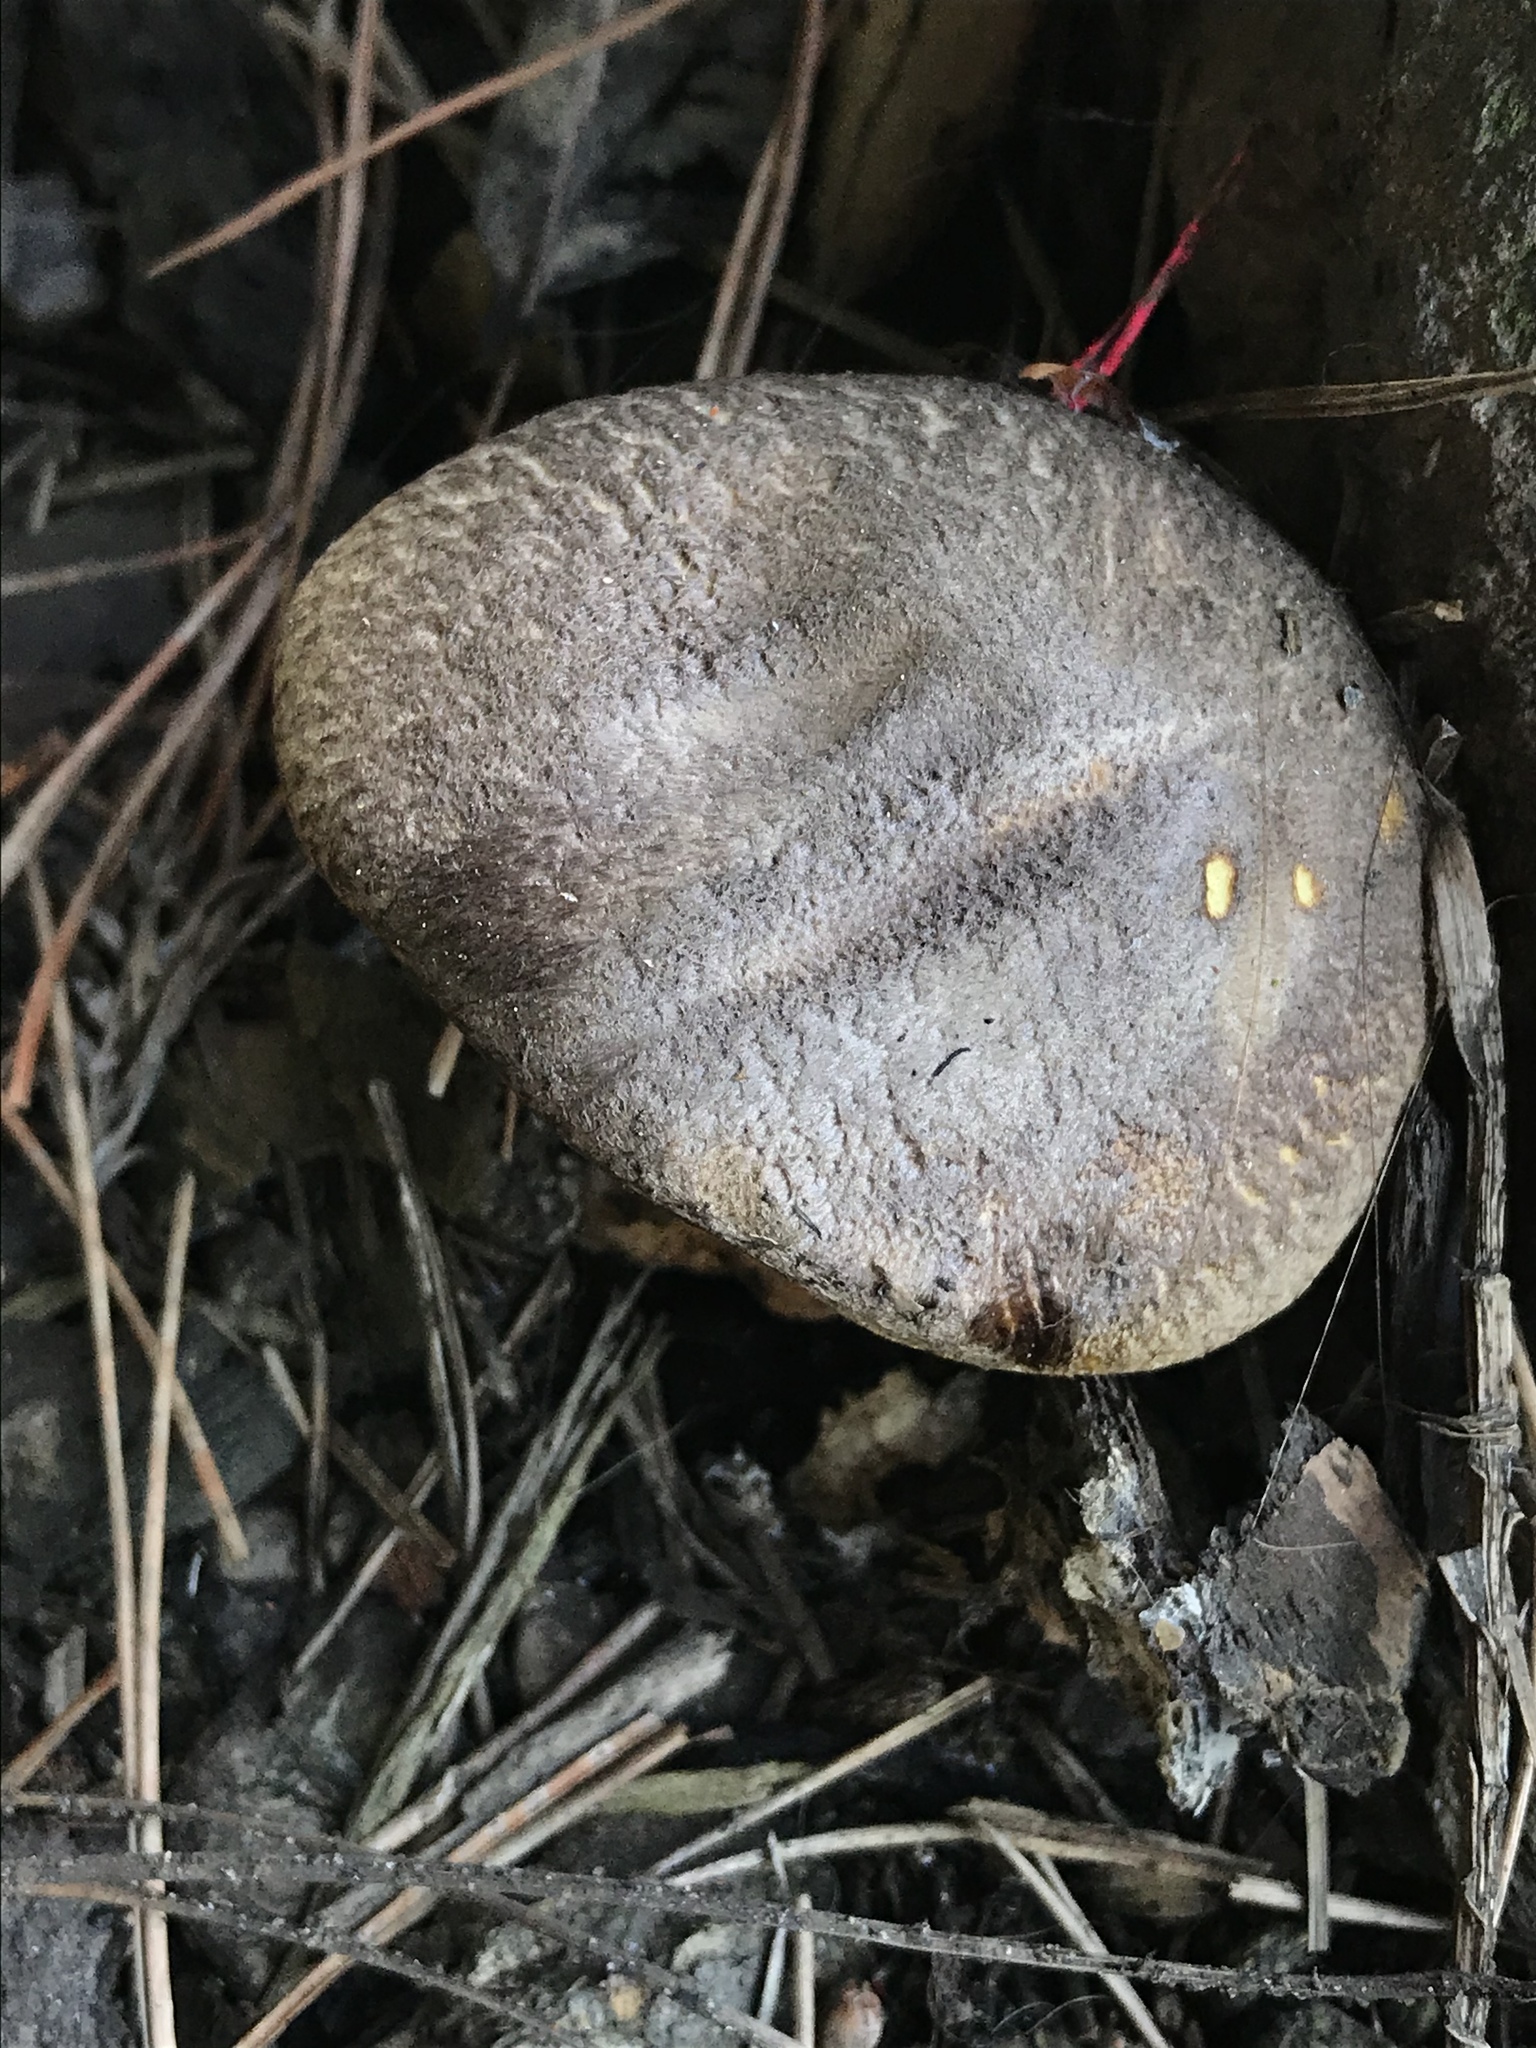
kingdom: Fungi
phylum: Basidiomycota
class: Agaricomycetes
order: Boletales
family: Suillaceae
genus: Suillus
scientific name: Suillus fuscotomentosus
